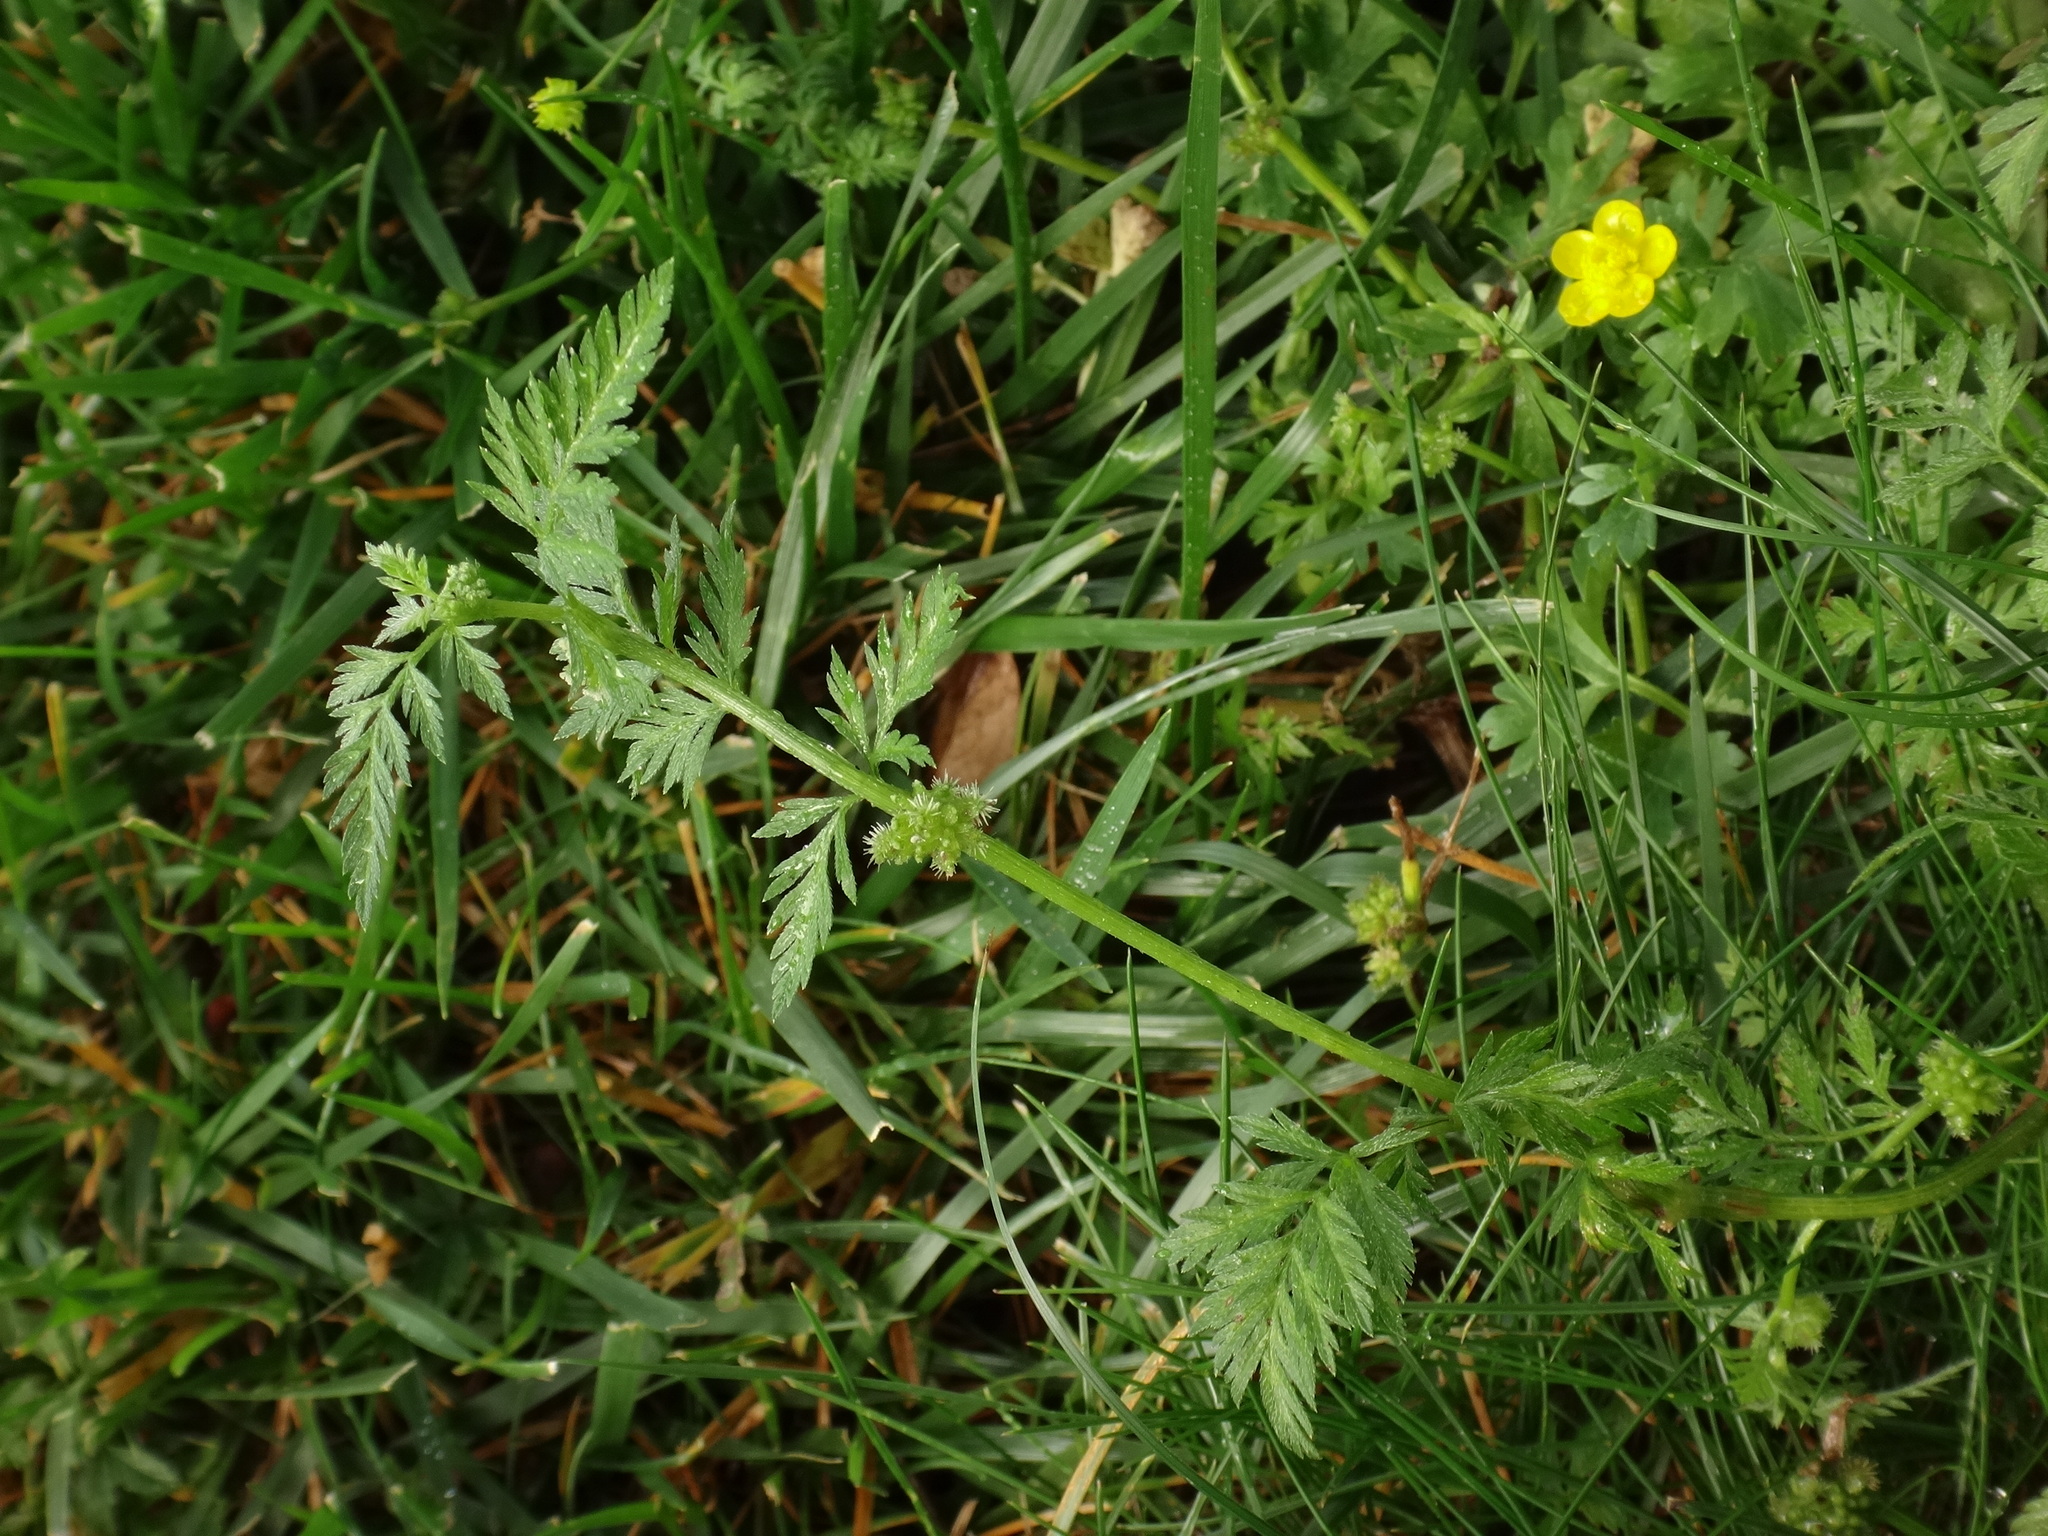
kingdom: Plantae
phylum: Tracheophyta
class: Magnoliopsida
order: Apiales
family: Apiaceae
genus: Torilis
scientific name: Torilis nodosa
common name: Knotted hedge-parsley
